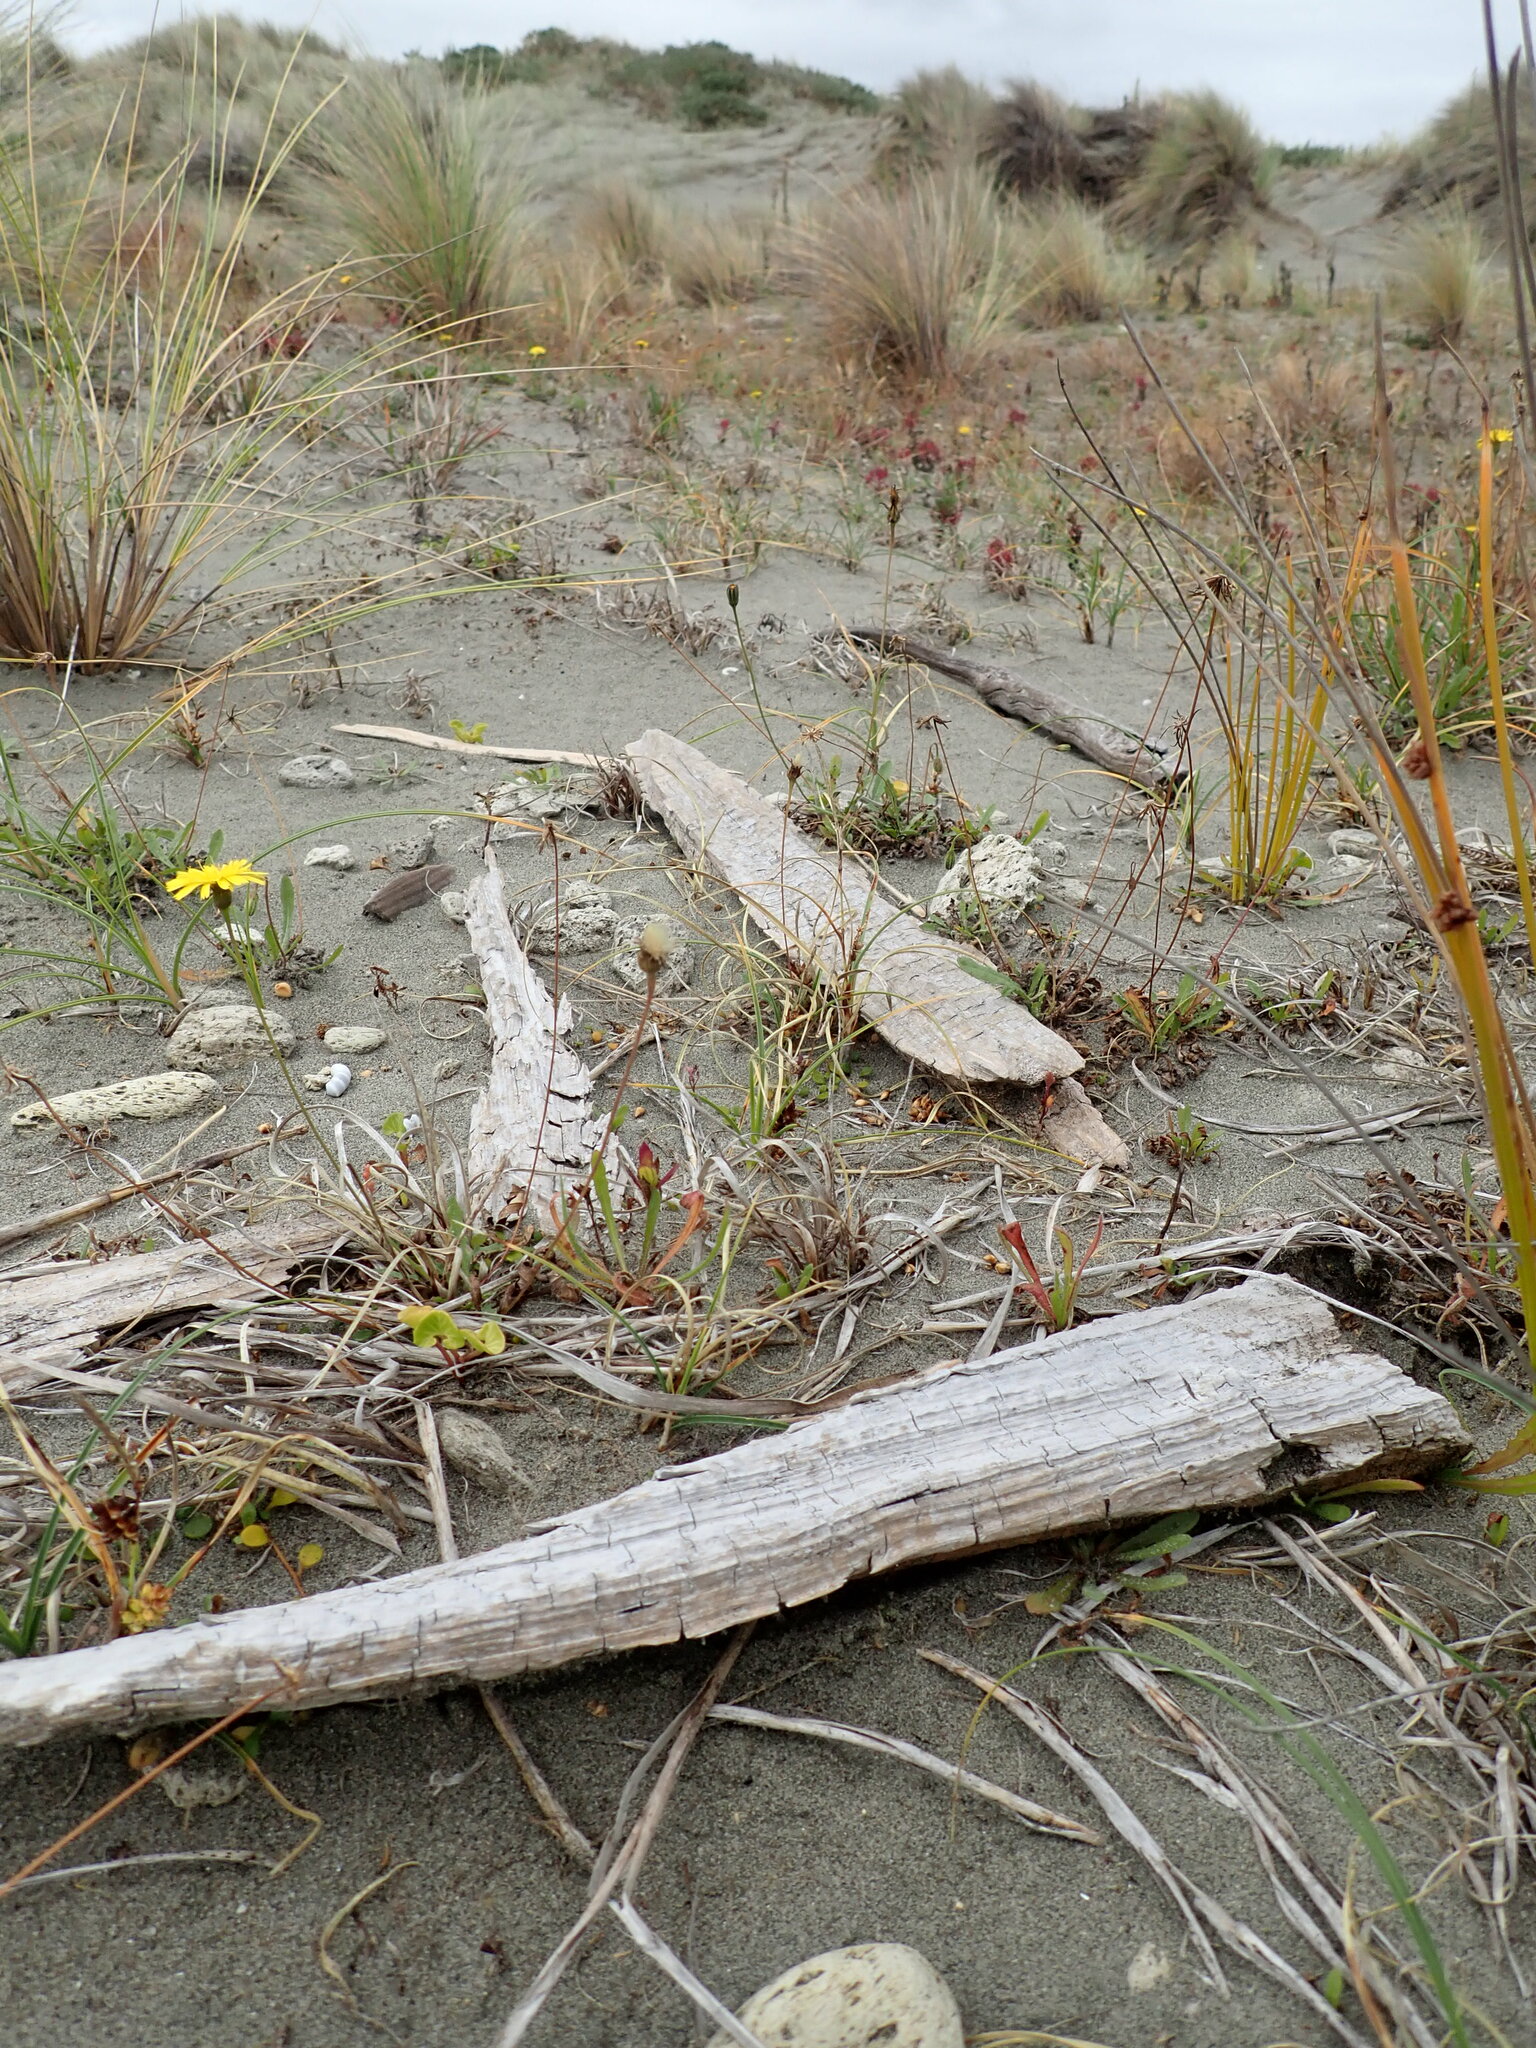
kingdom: Animalia
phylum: Arthropoda
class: Arachnida
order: Araneae
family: Theridiidae
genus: Steatoda
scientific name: Steatoda lepida
